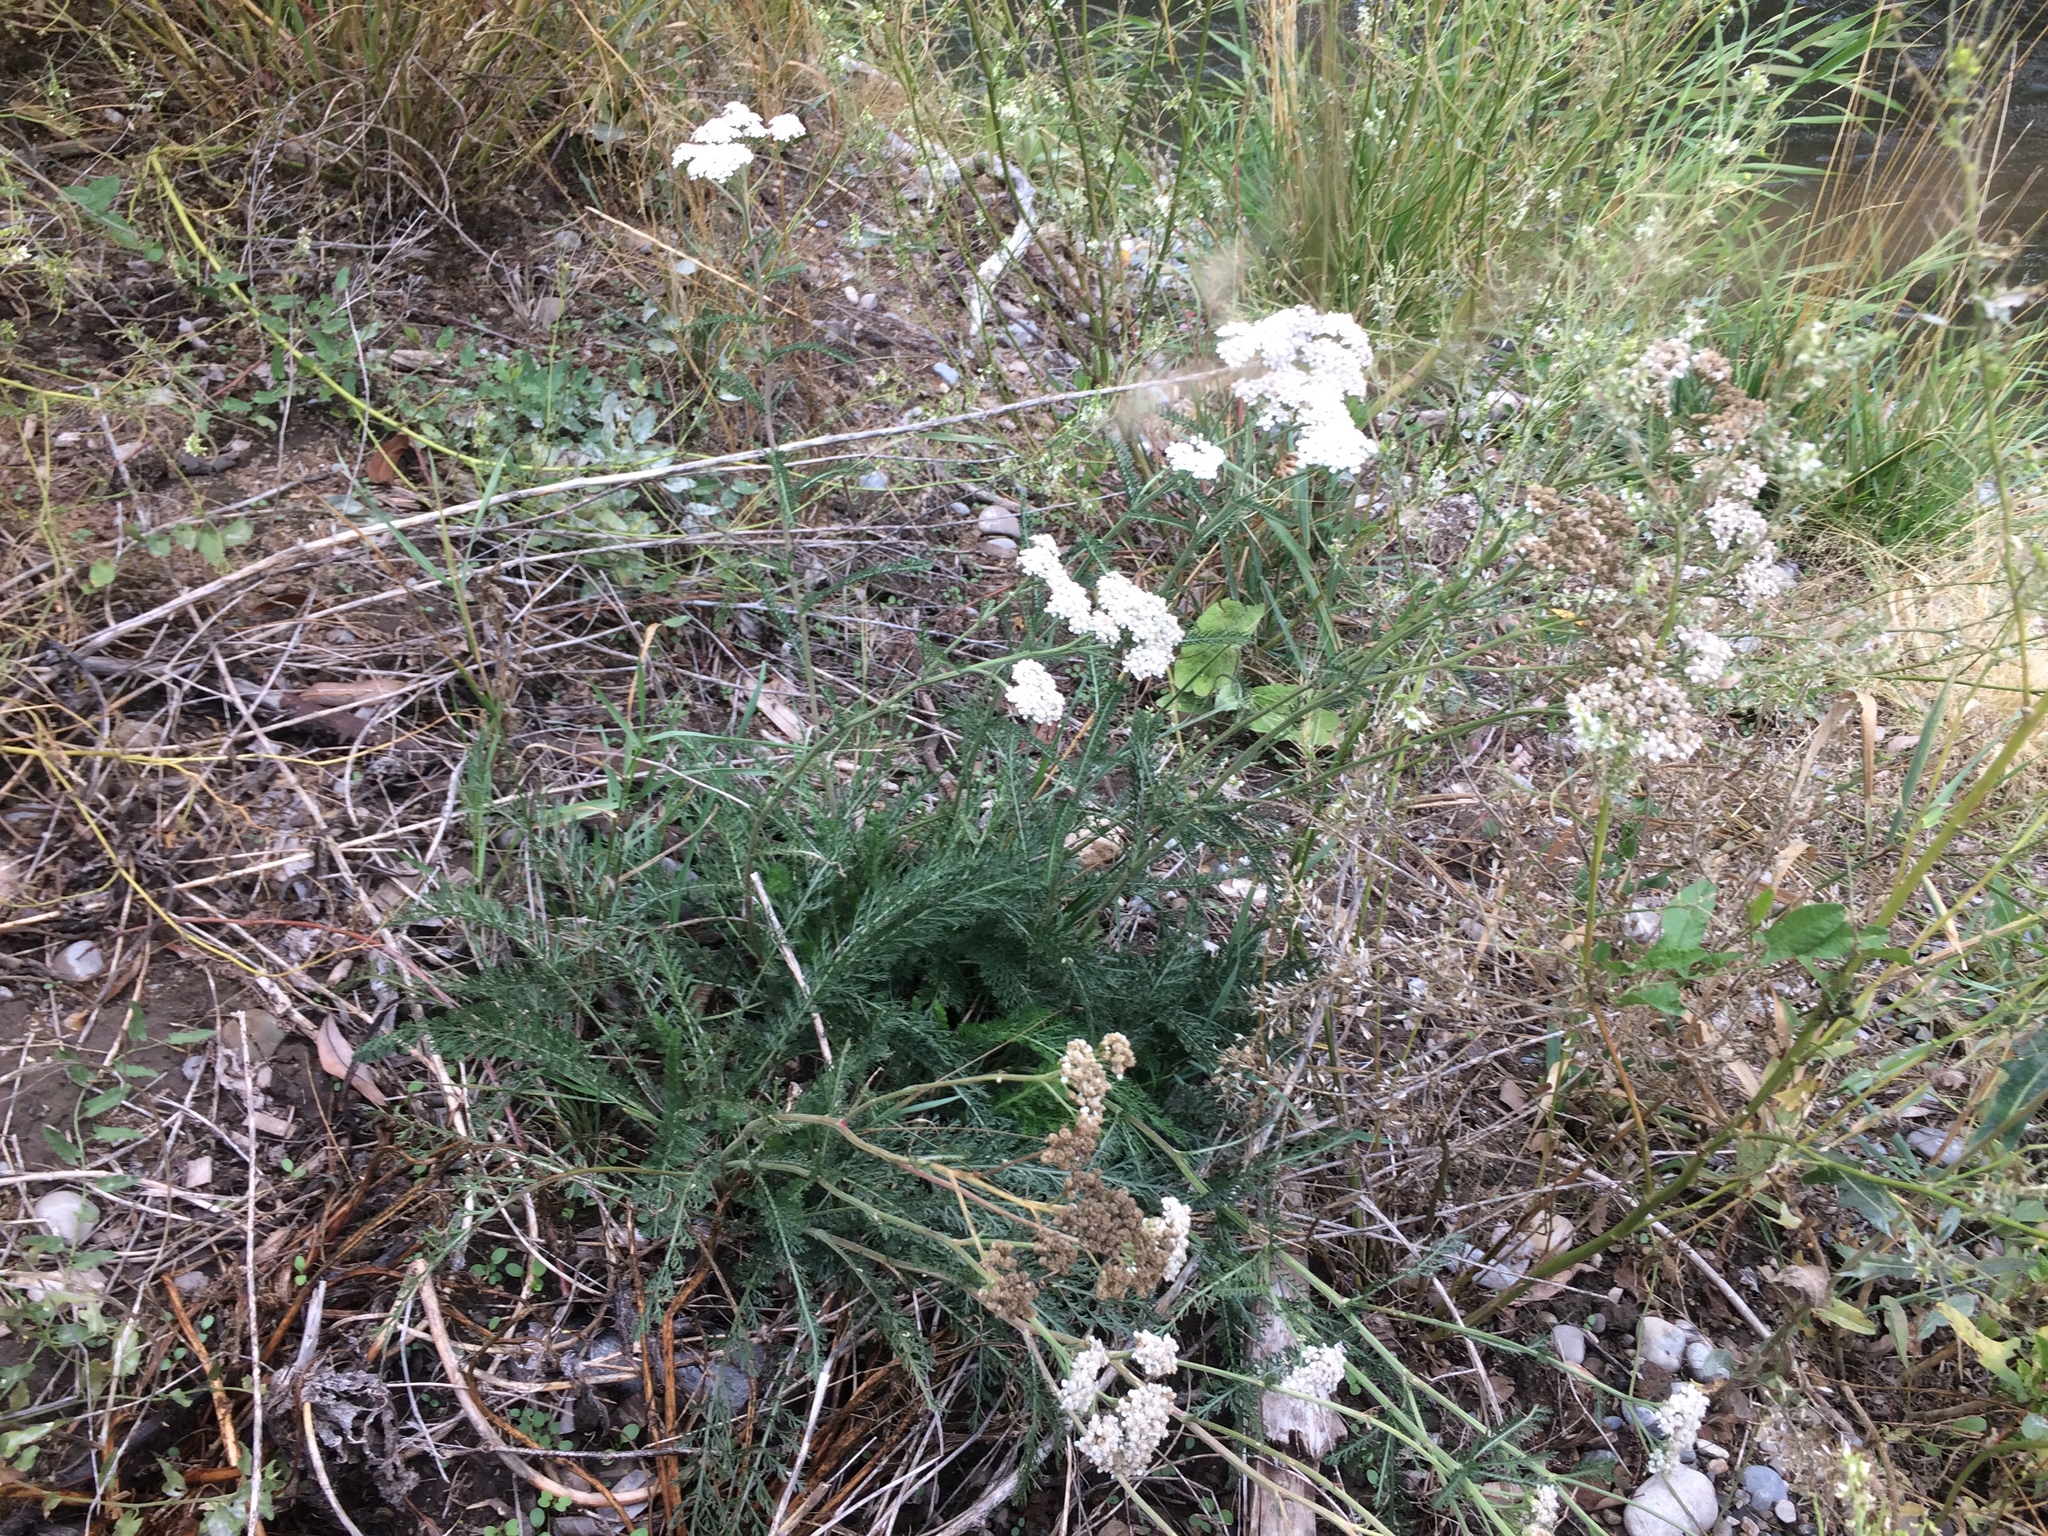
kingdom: Plantae
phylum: Tracheophyta
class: Magnoliopsida
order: Asterales
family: Asteraceae
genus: Achillea
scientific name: Achillea millefolium
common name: Yarrow
